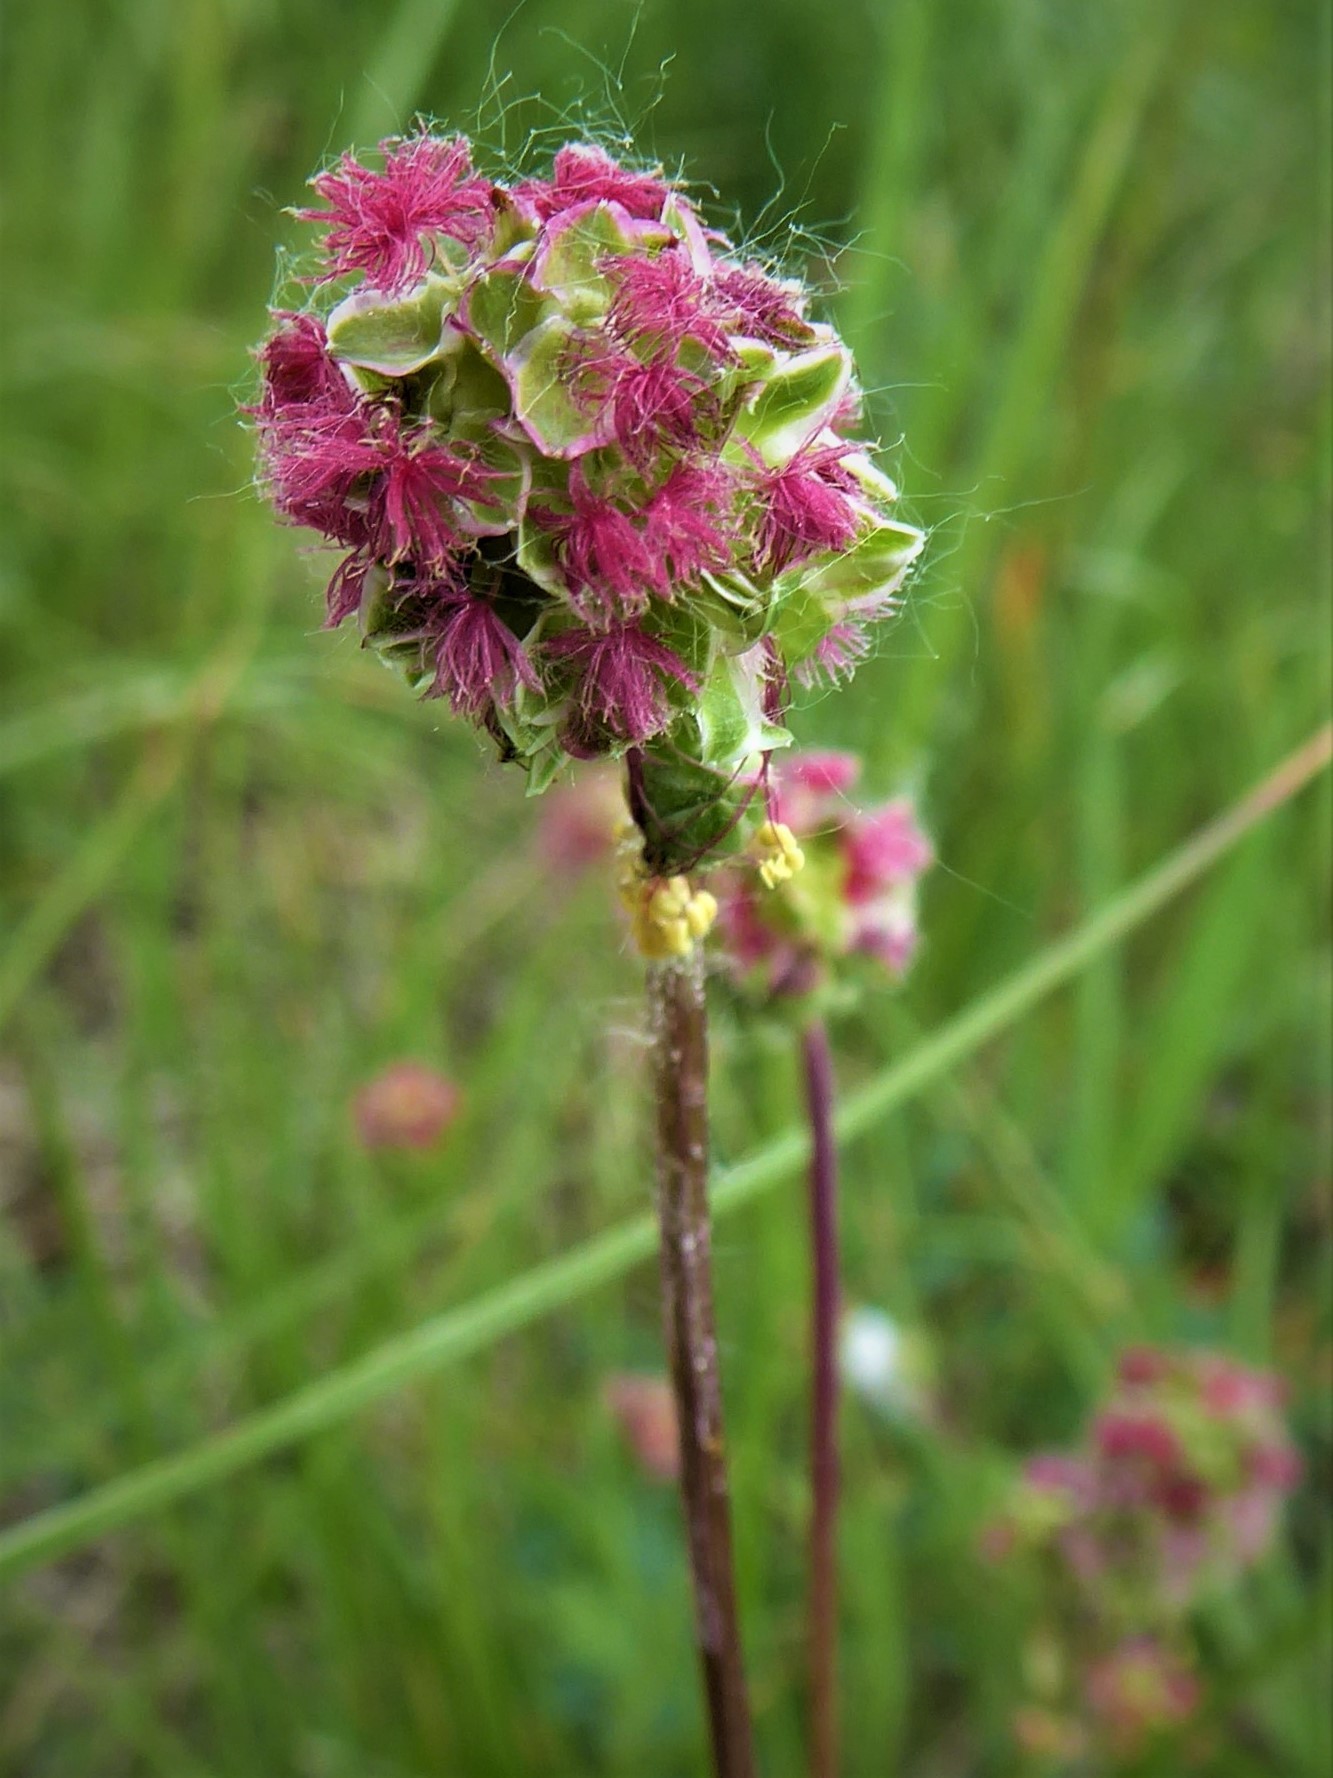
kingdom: Plantae
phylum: Tracheophyta
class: Magnoliopsida
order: Rosales
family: Rosaceae
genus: Poterium
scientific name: Poterium sanguisorba
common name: Salad burnet
